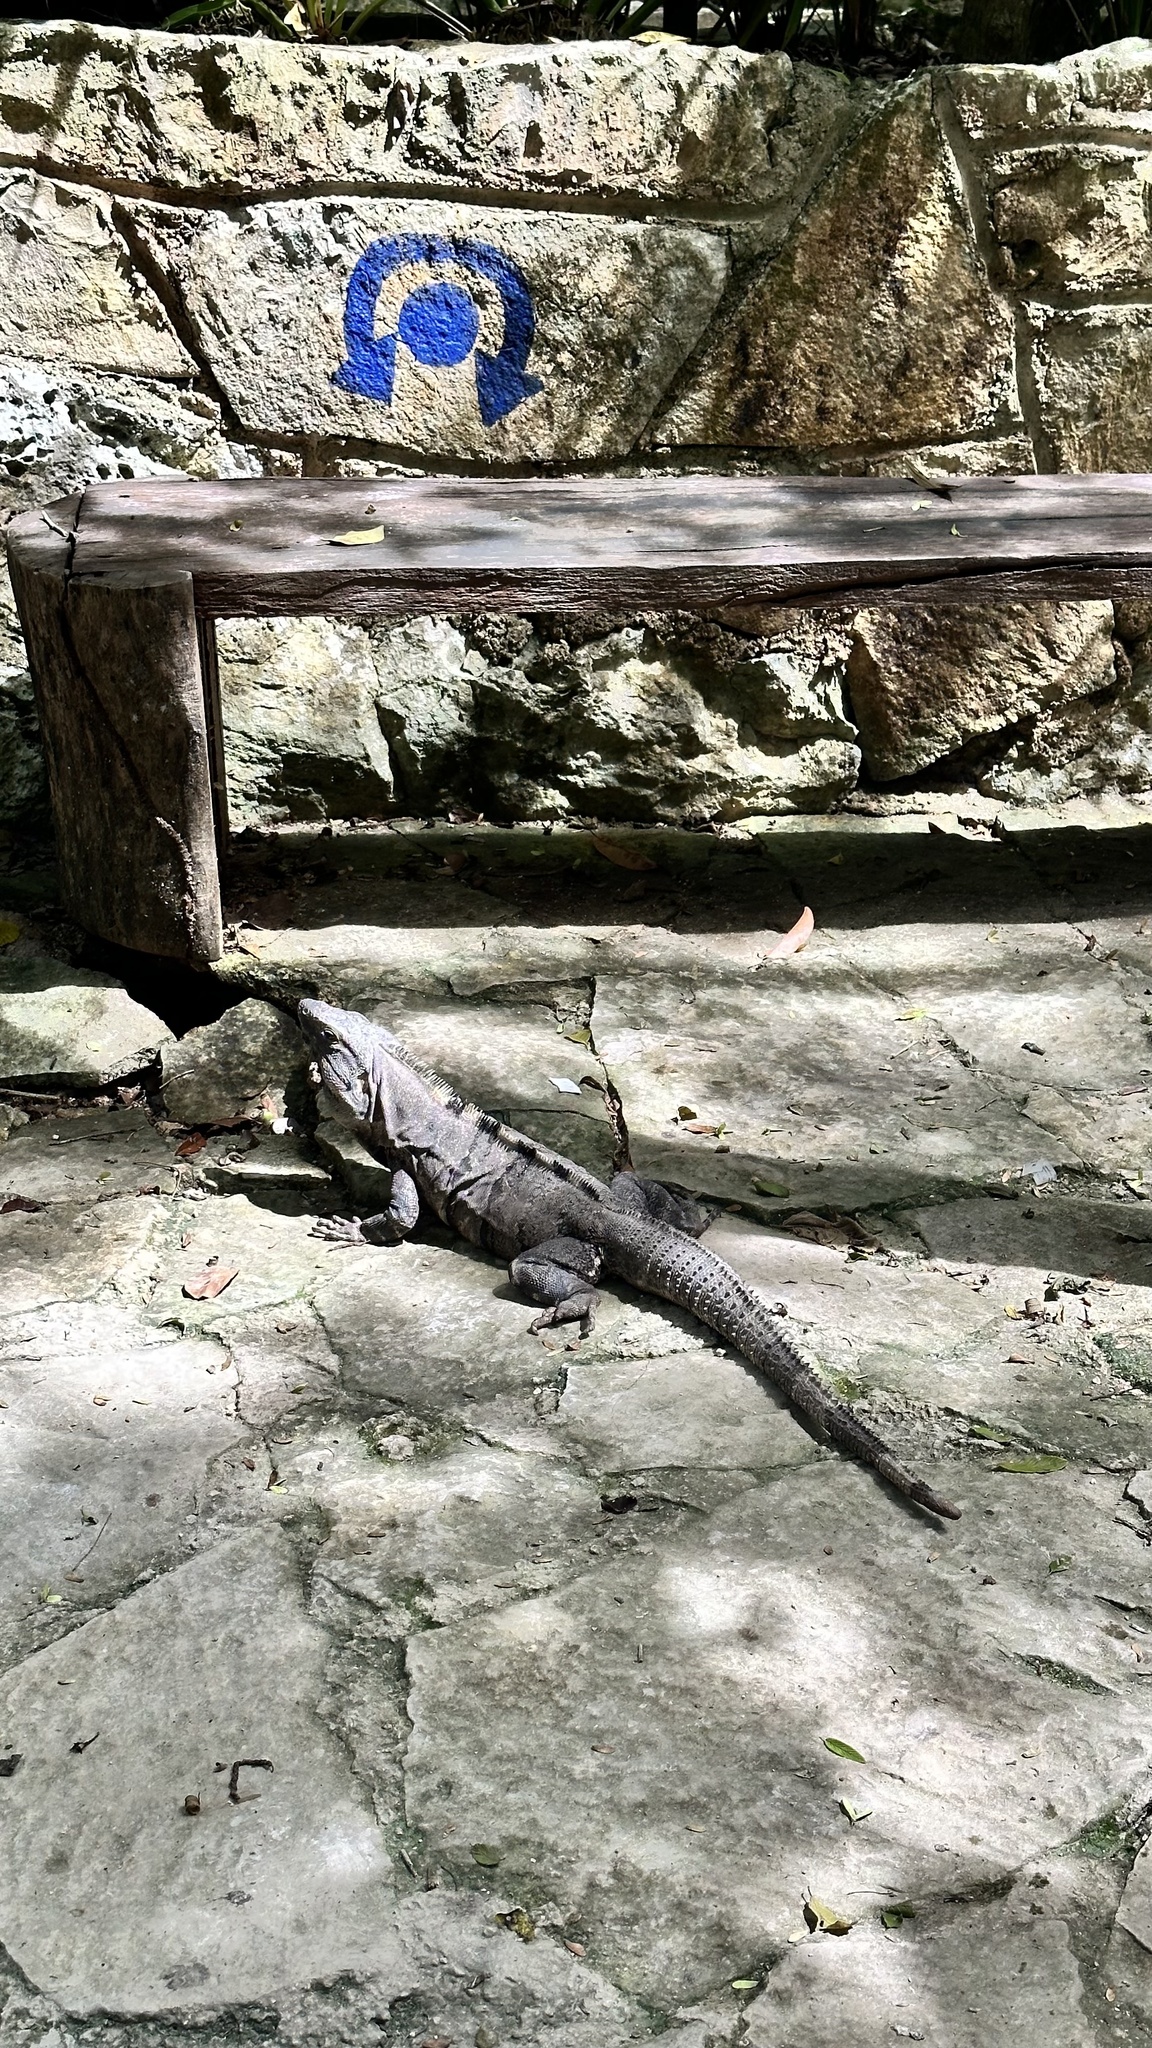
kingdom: Animalia
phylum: Chordata
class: Squamata
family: Iguanidae
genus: Ctenosaura
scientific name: Ctenosaura similis
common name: Black spiny-tailed iguana
